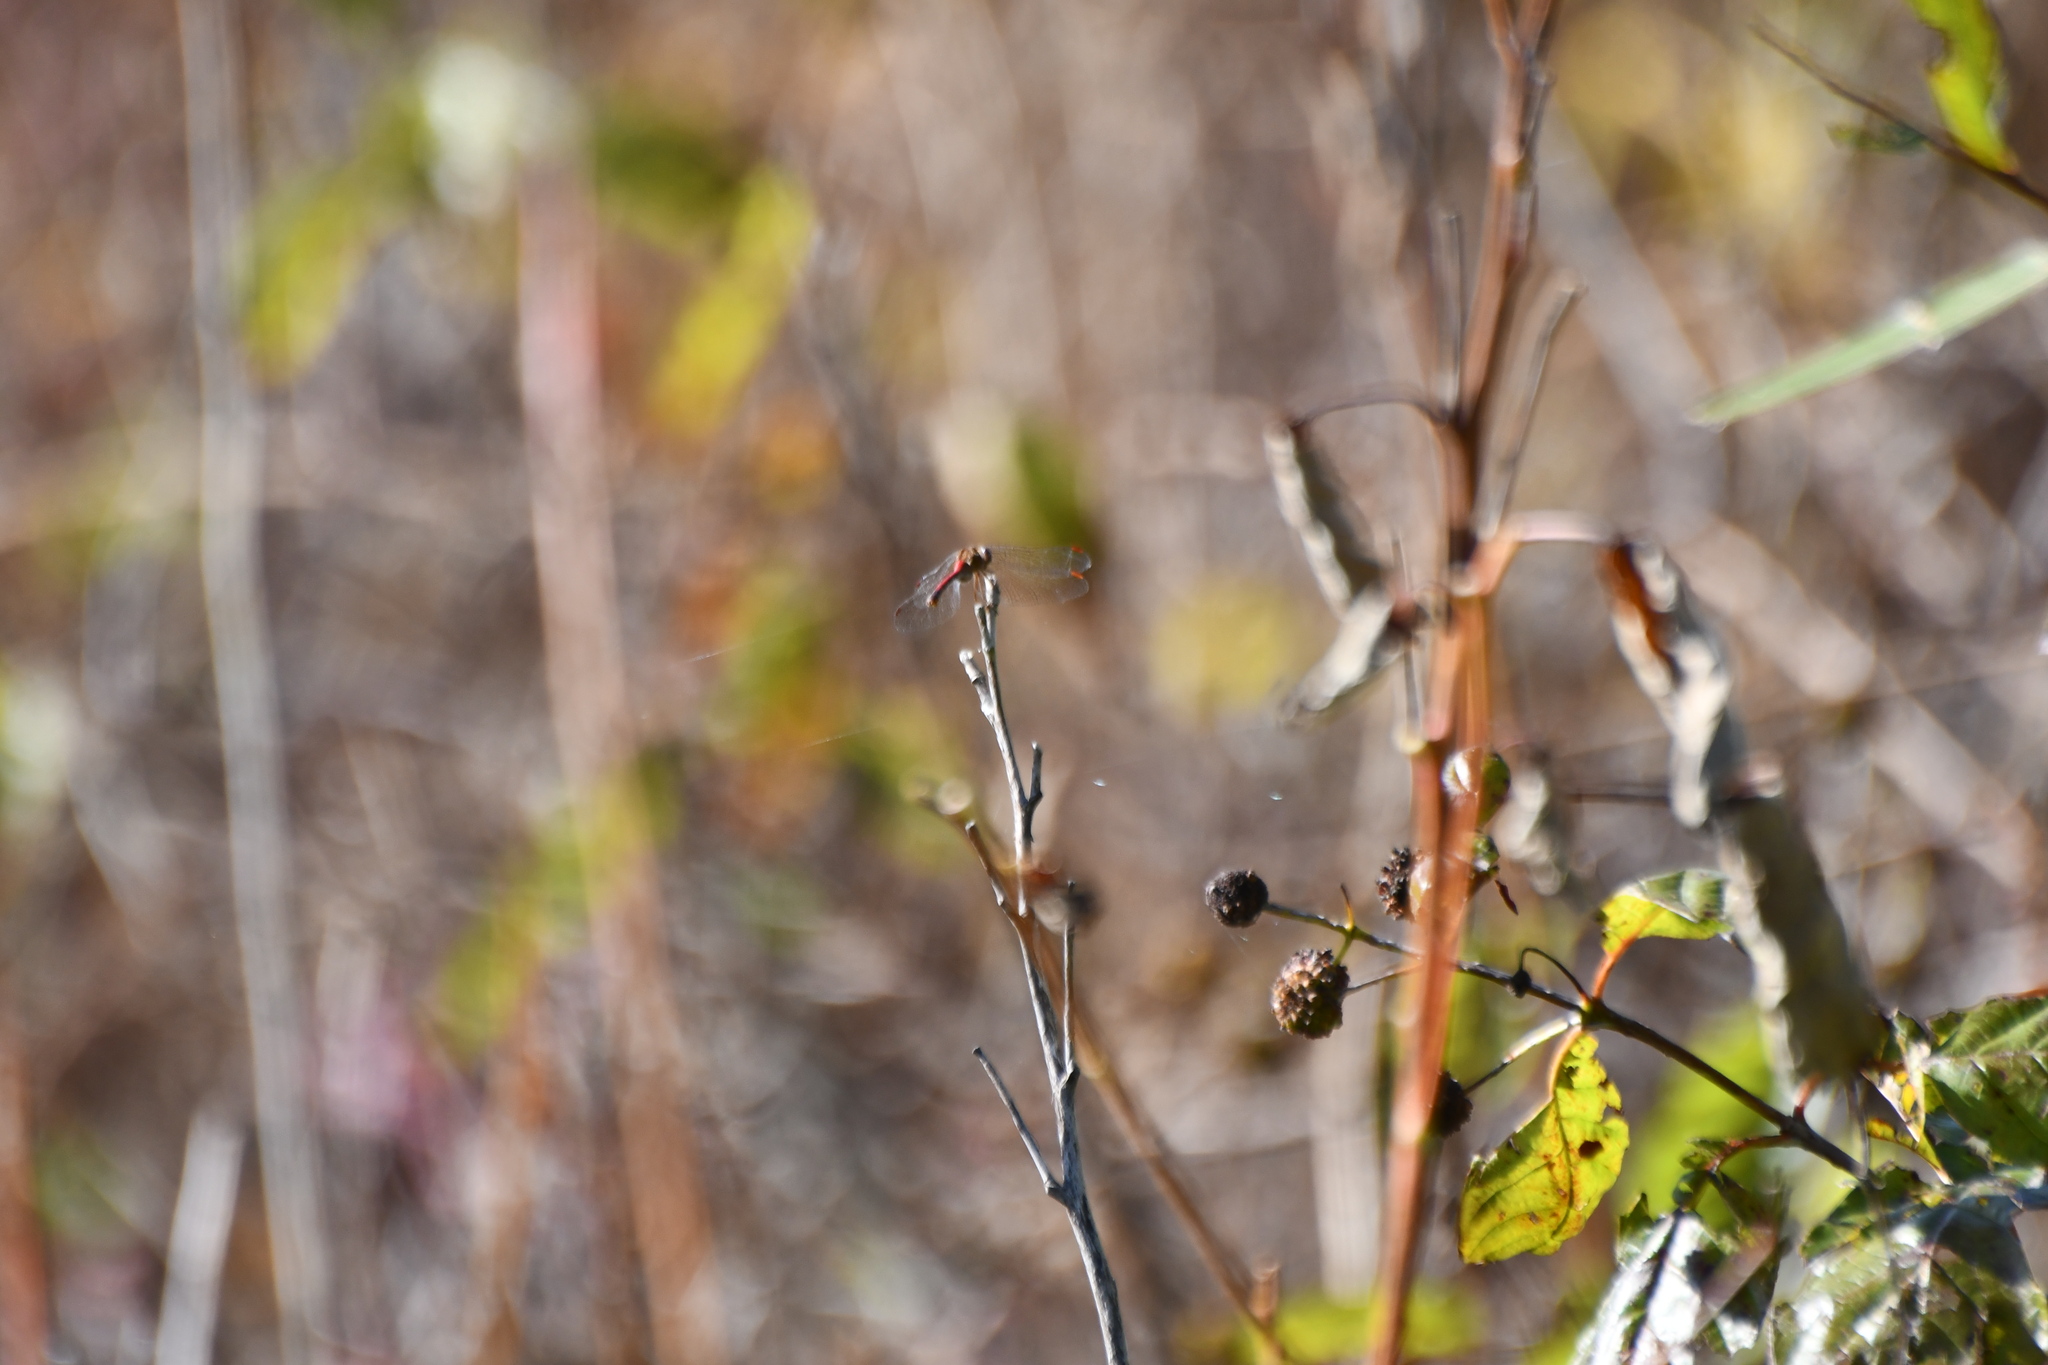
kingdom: Animalia
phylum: Arthropoda
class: Insecta
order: Odonata
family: Libellulidae
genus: Sympetrum
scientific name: Sympetrum vicinum
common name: Autumn meadowhawk
